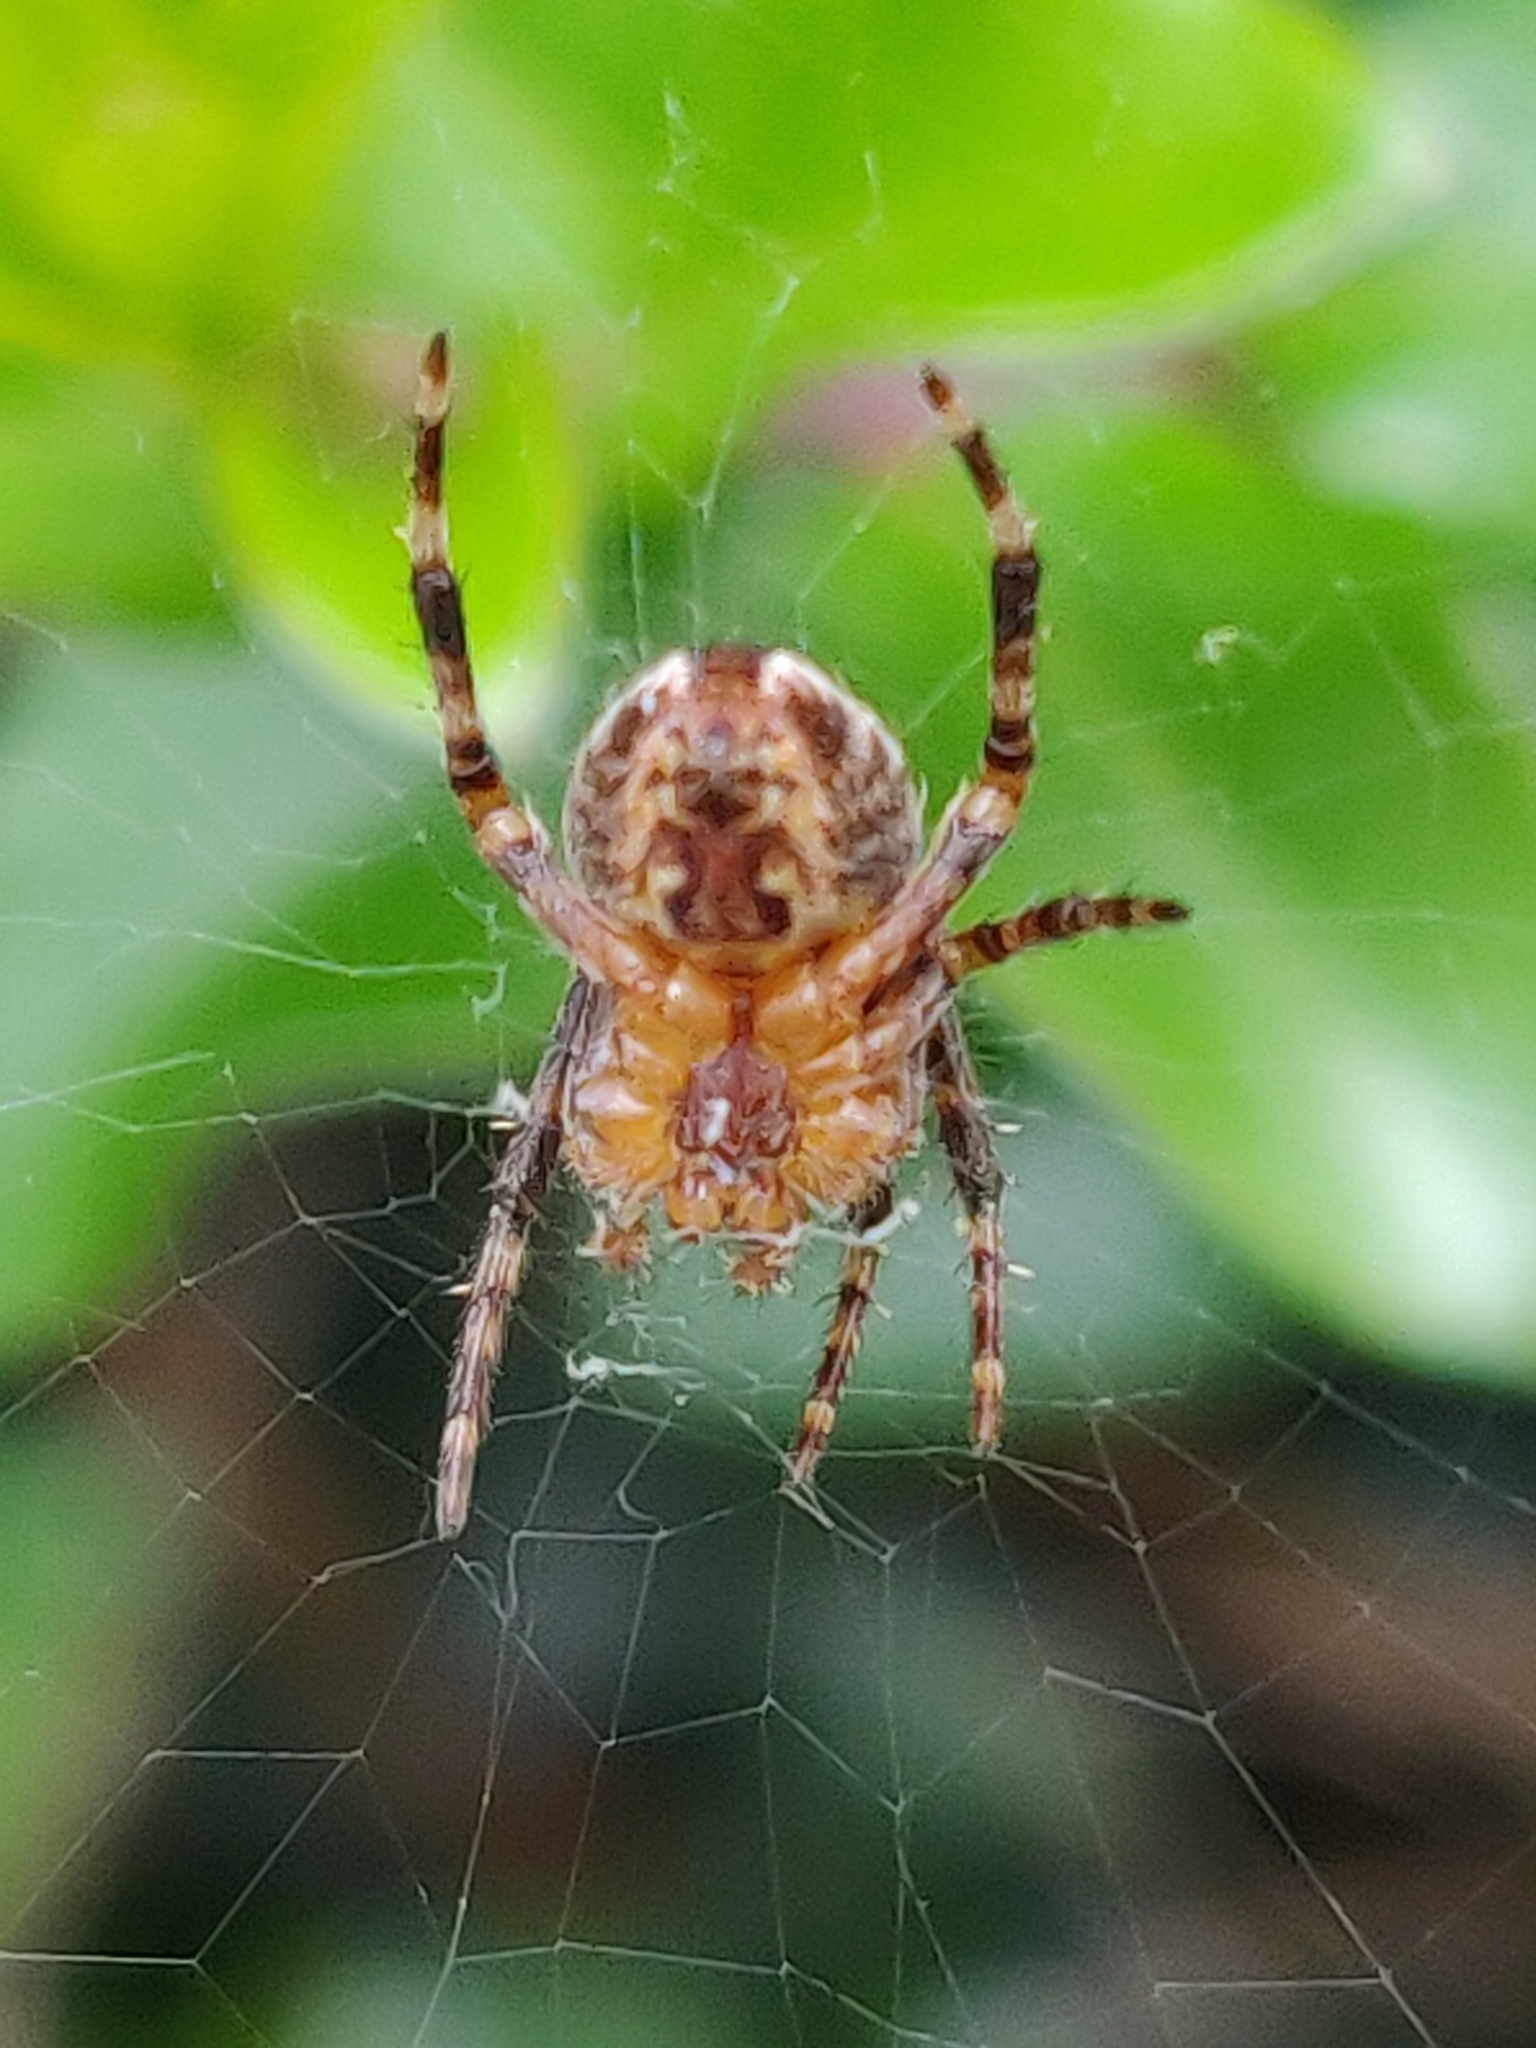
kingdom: Animalia
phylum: Arthropoda
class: Arachnida
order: Araneae
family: Araneidae
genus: Araneus
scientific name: Araneus diadematus
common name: Cross orbweaver
